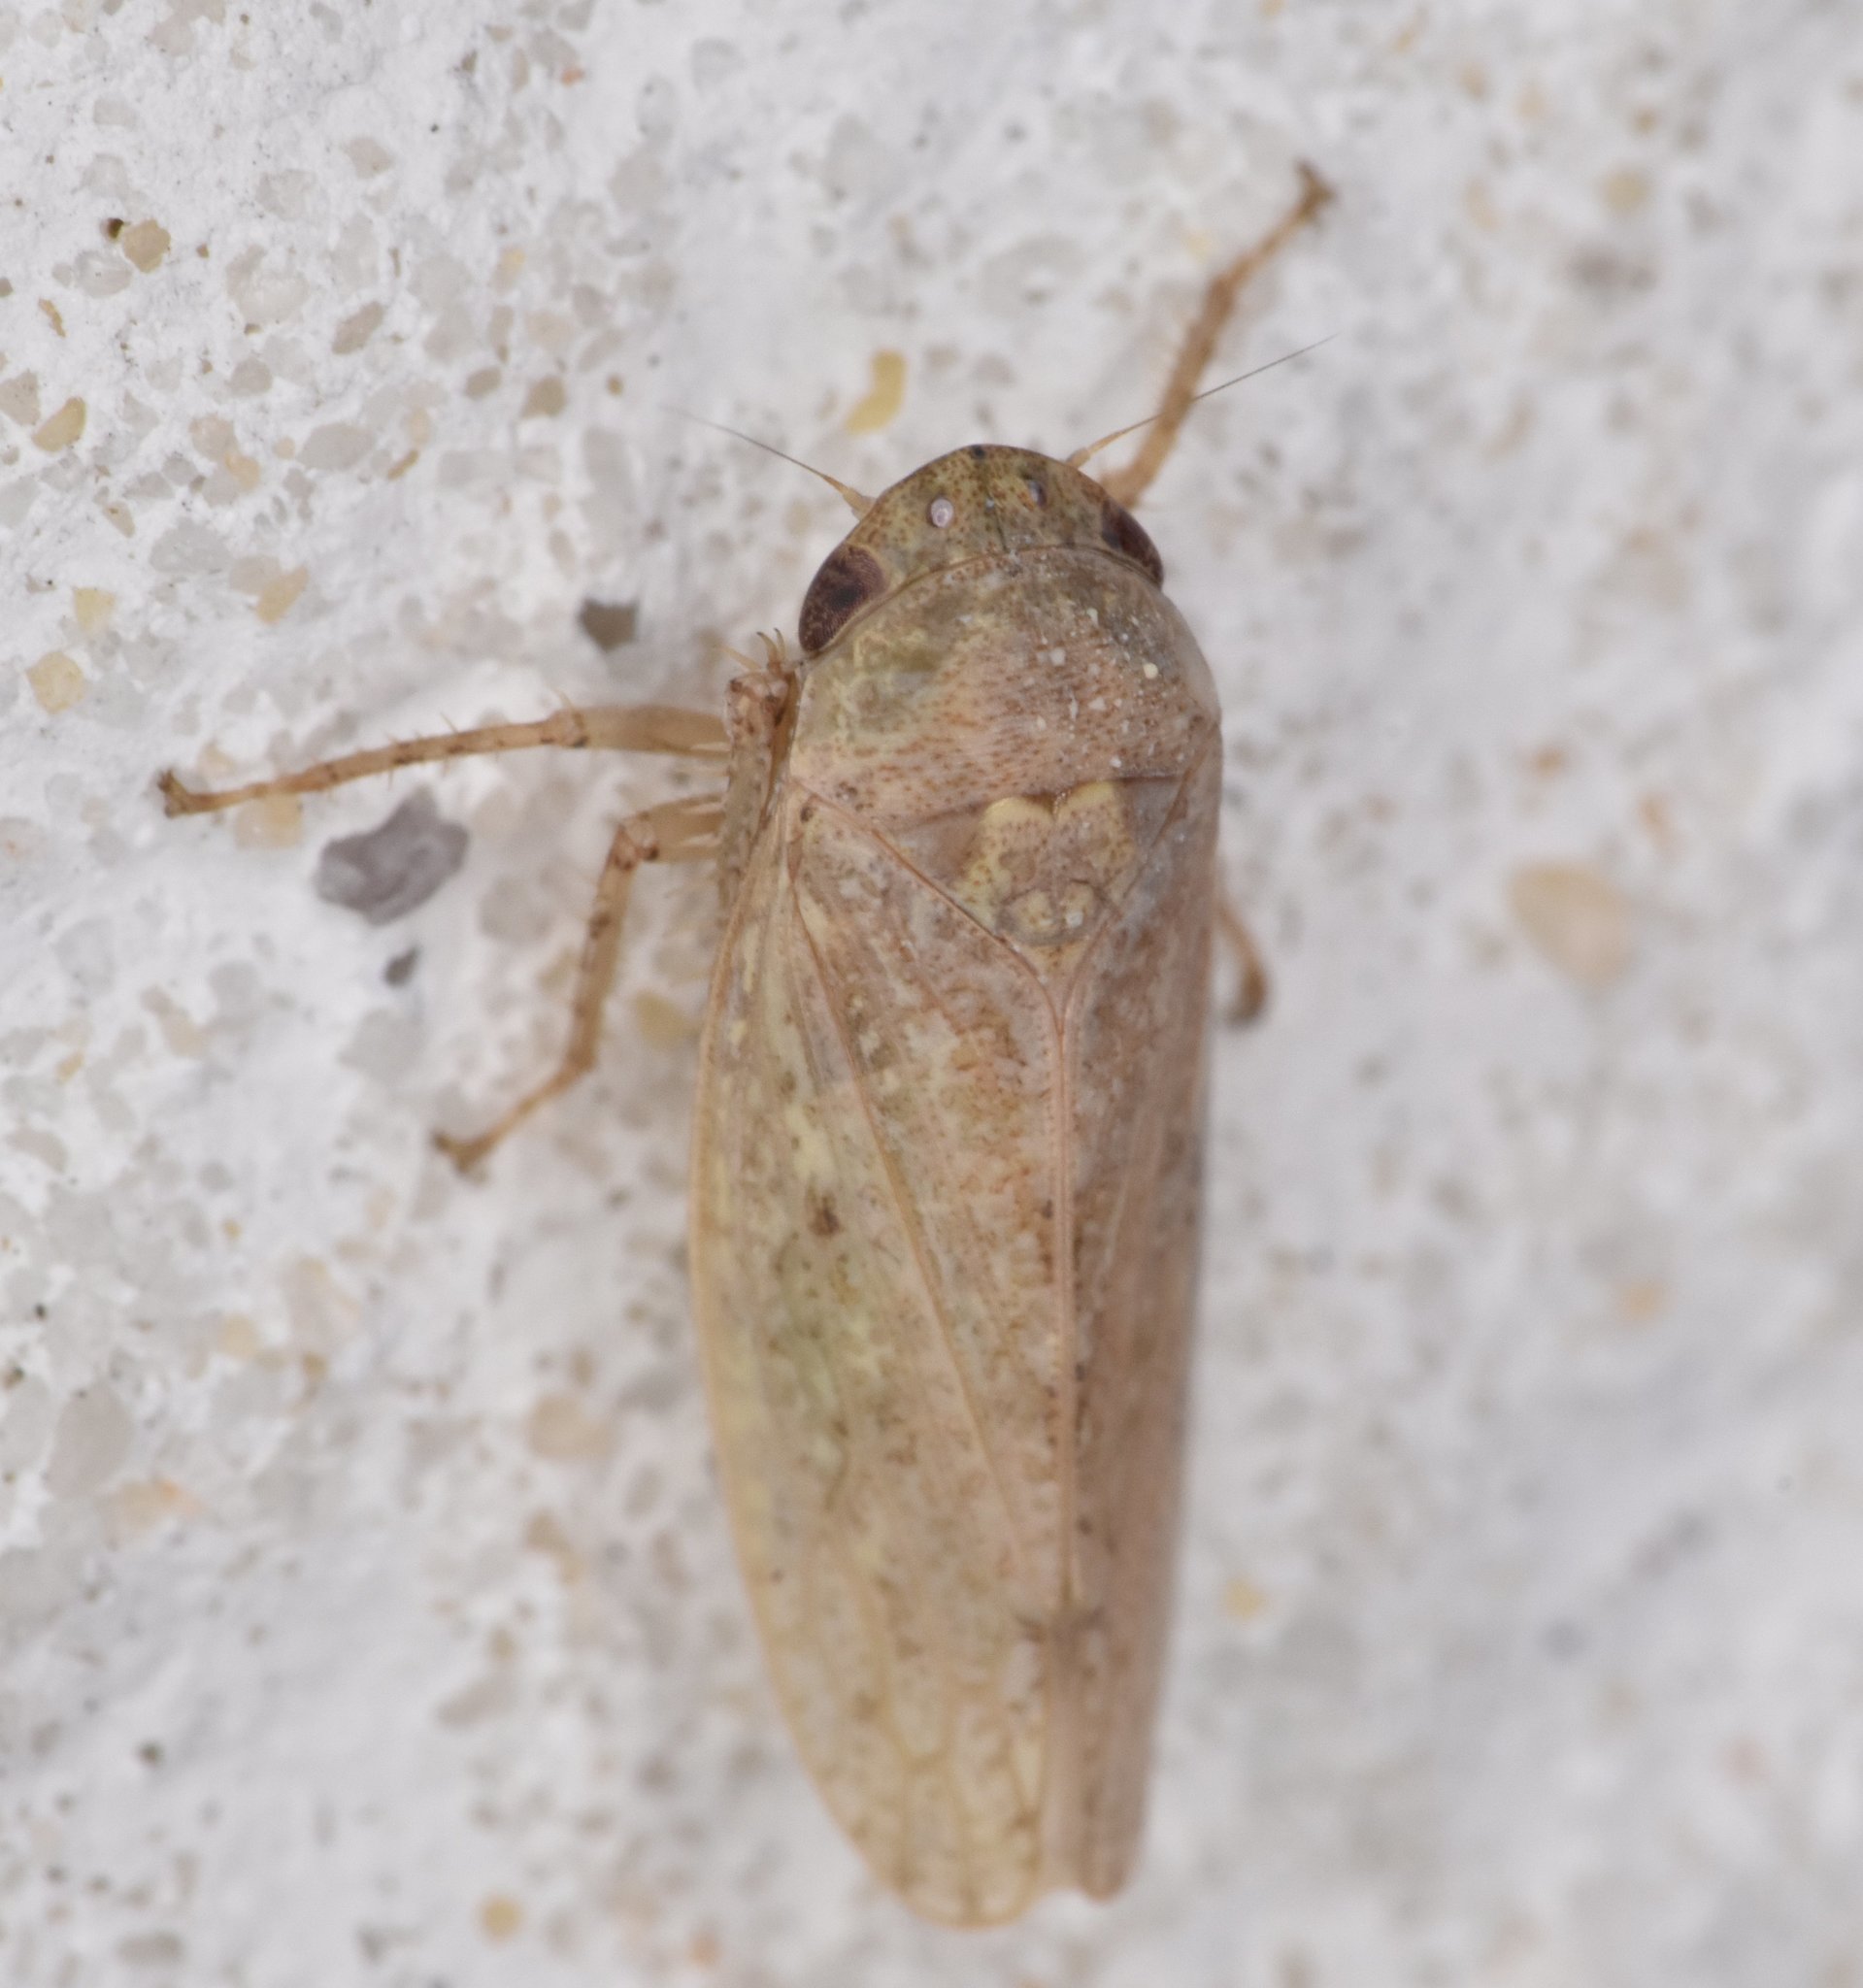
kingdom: Animalia
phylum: Arthropoda
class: Insecta
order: Hemiptera
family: Cicadellidae
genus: Curtara
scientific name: Curtara insularis
